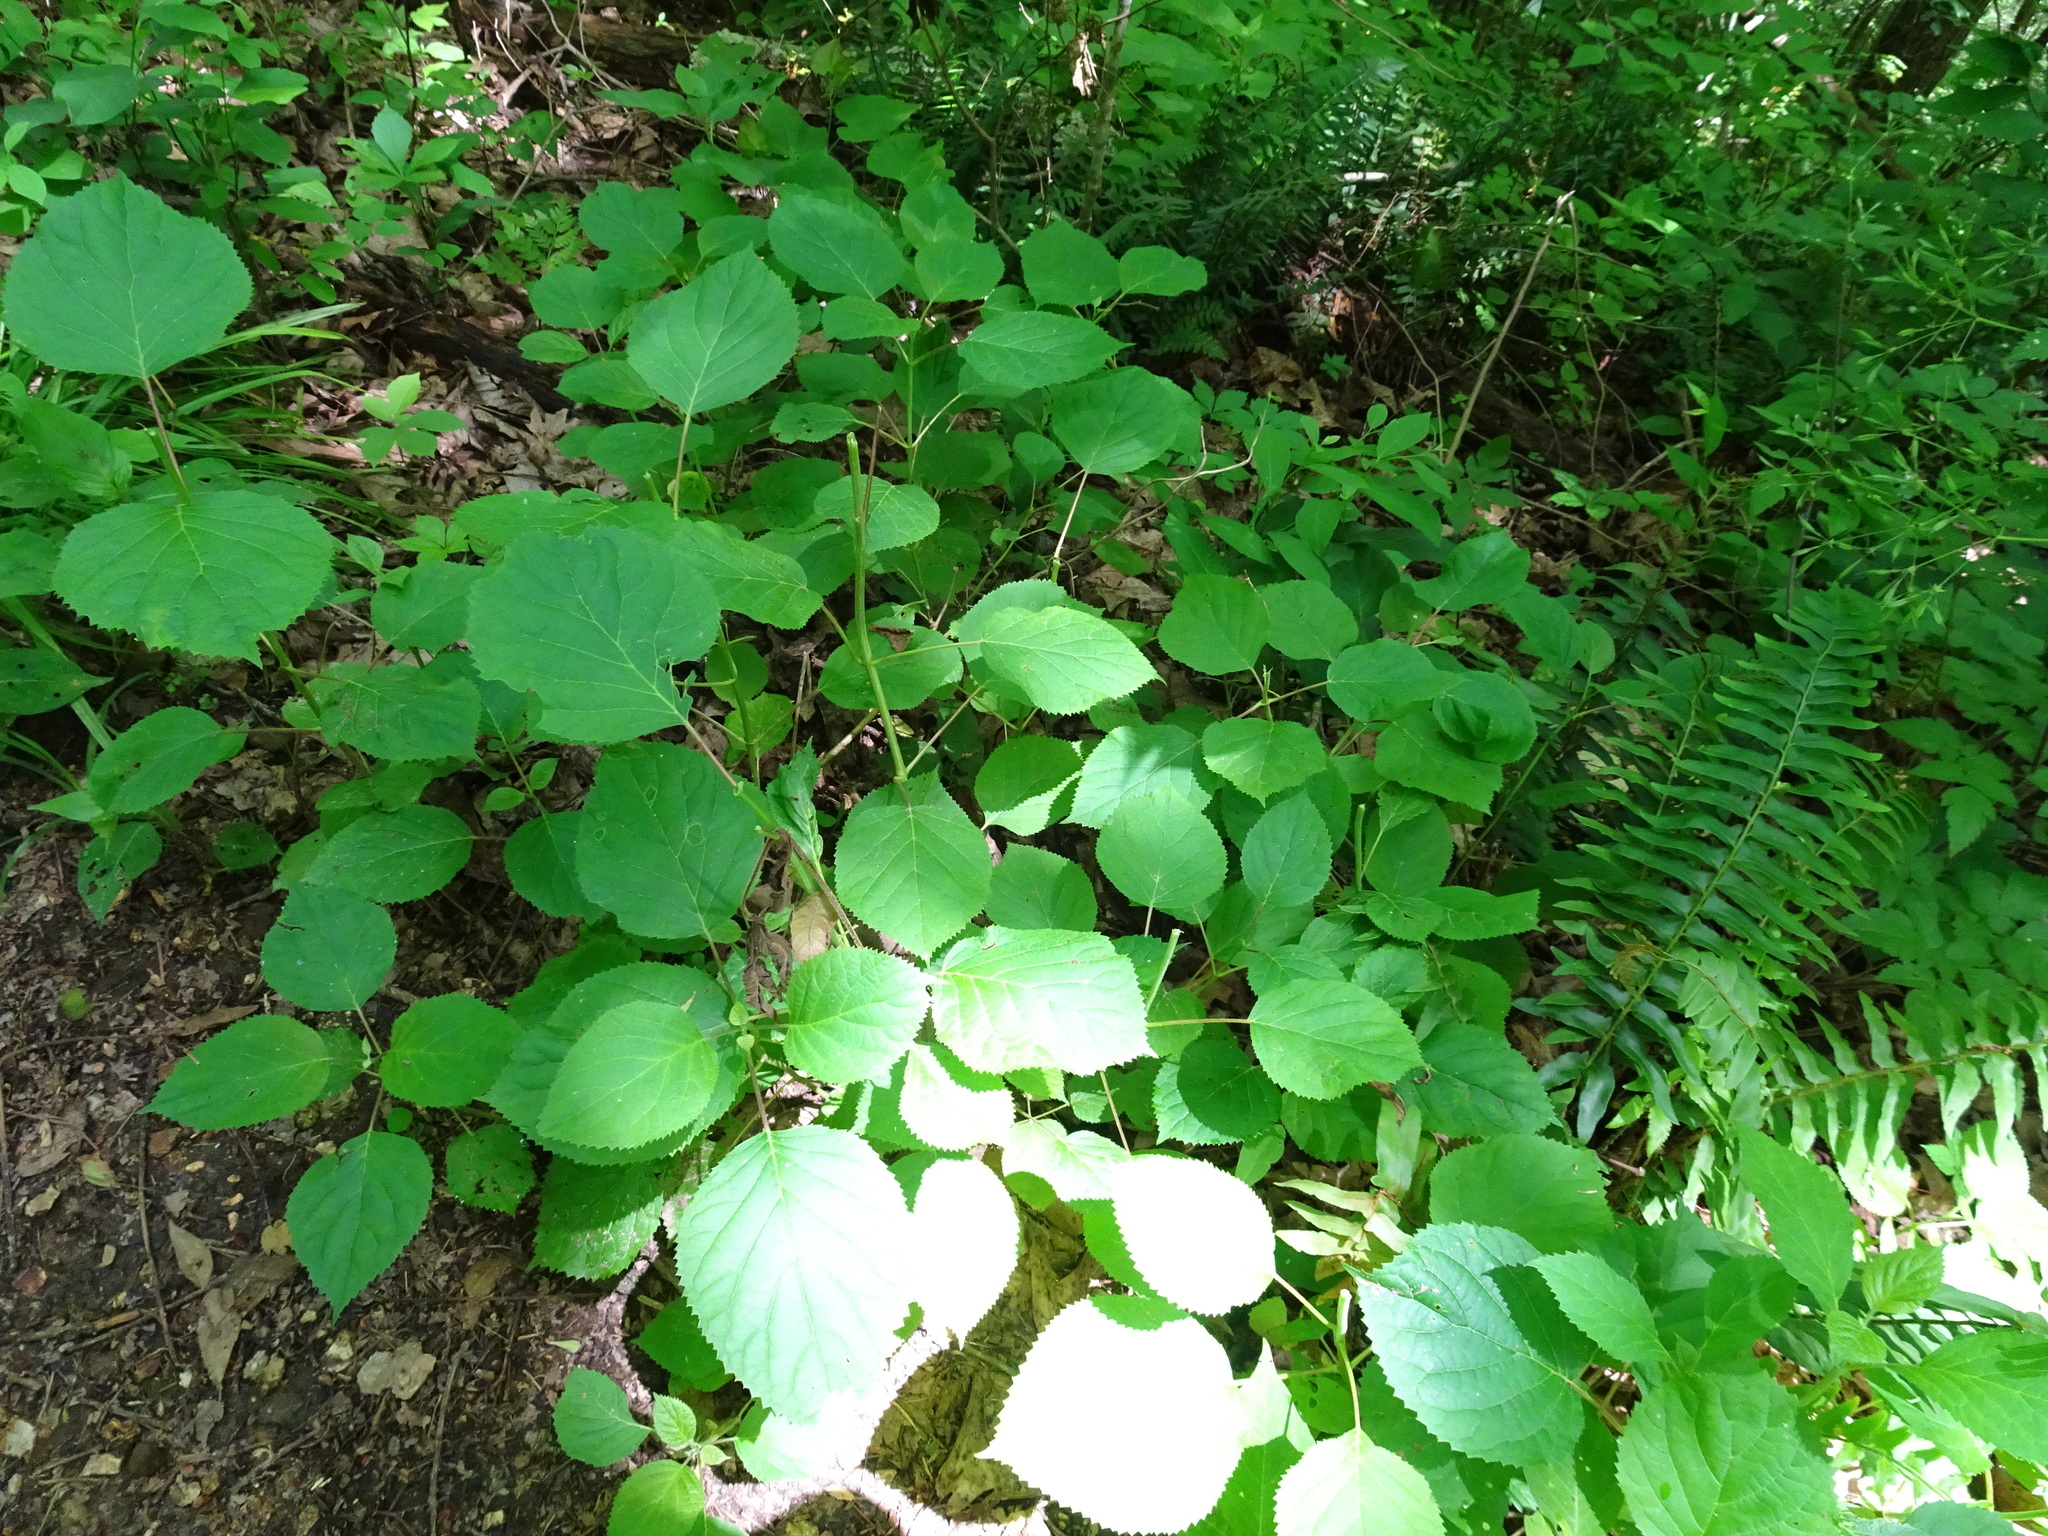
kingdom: Plantae
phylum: Tracheophyta
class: Magnoliopsida
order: Cornales
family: Hydrangeaceae
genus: Hydrangea
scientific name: Hydrangea arborescens
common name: Sevenbark
